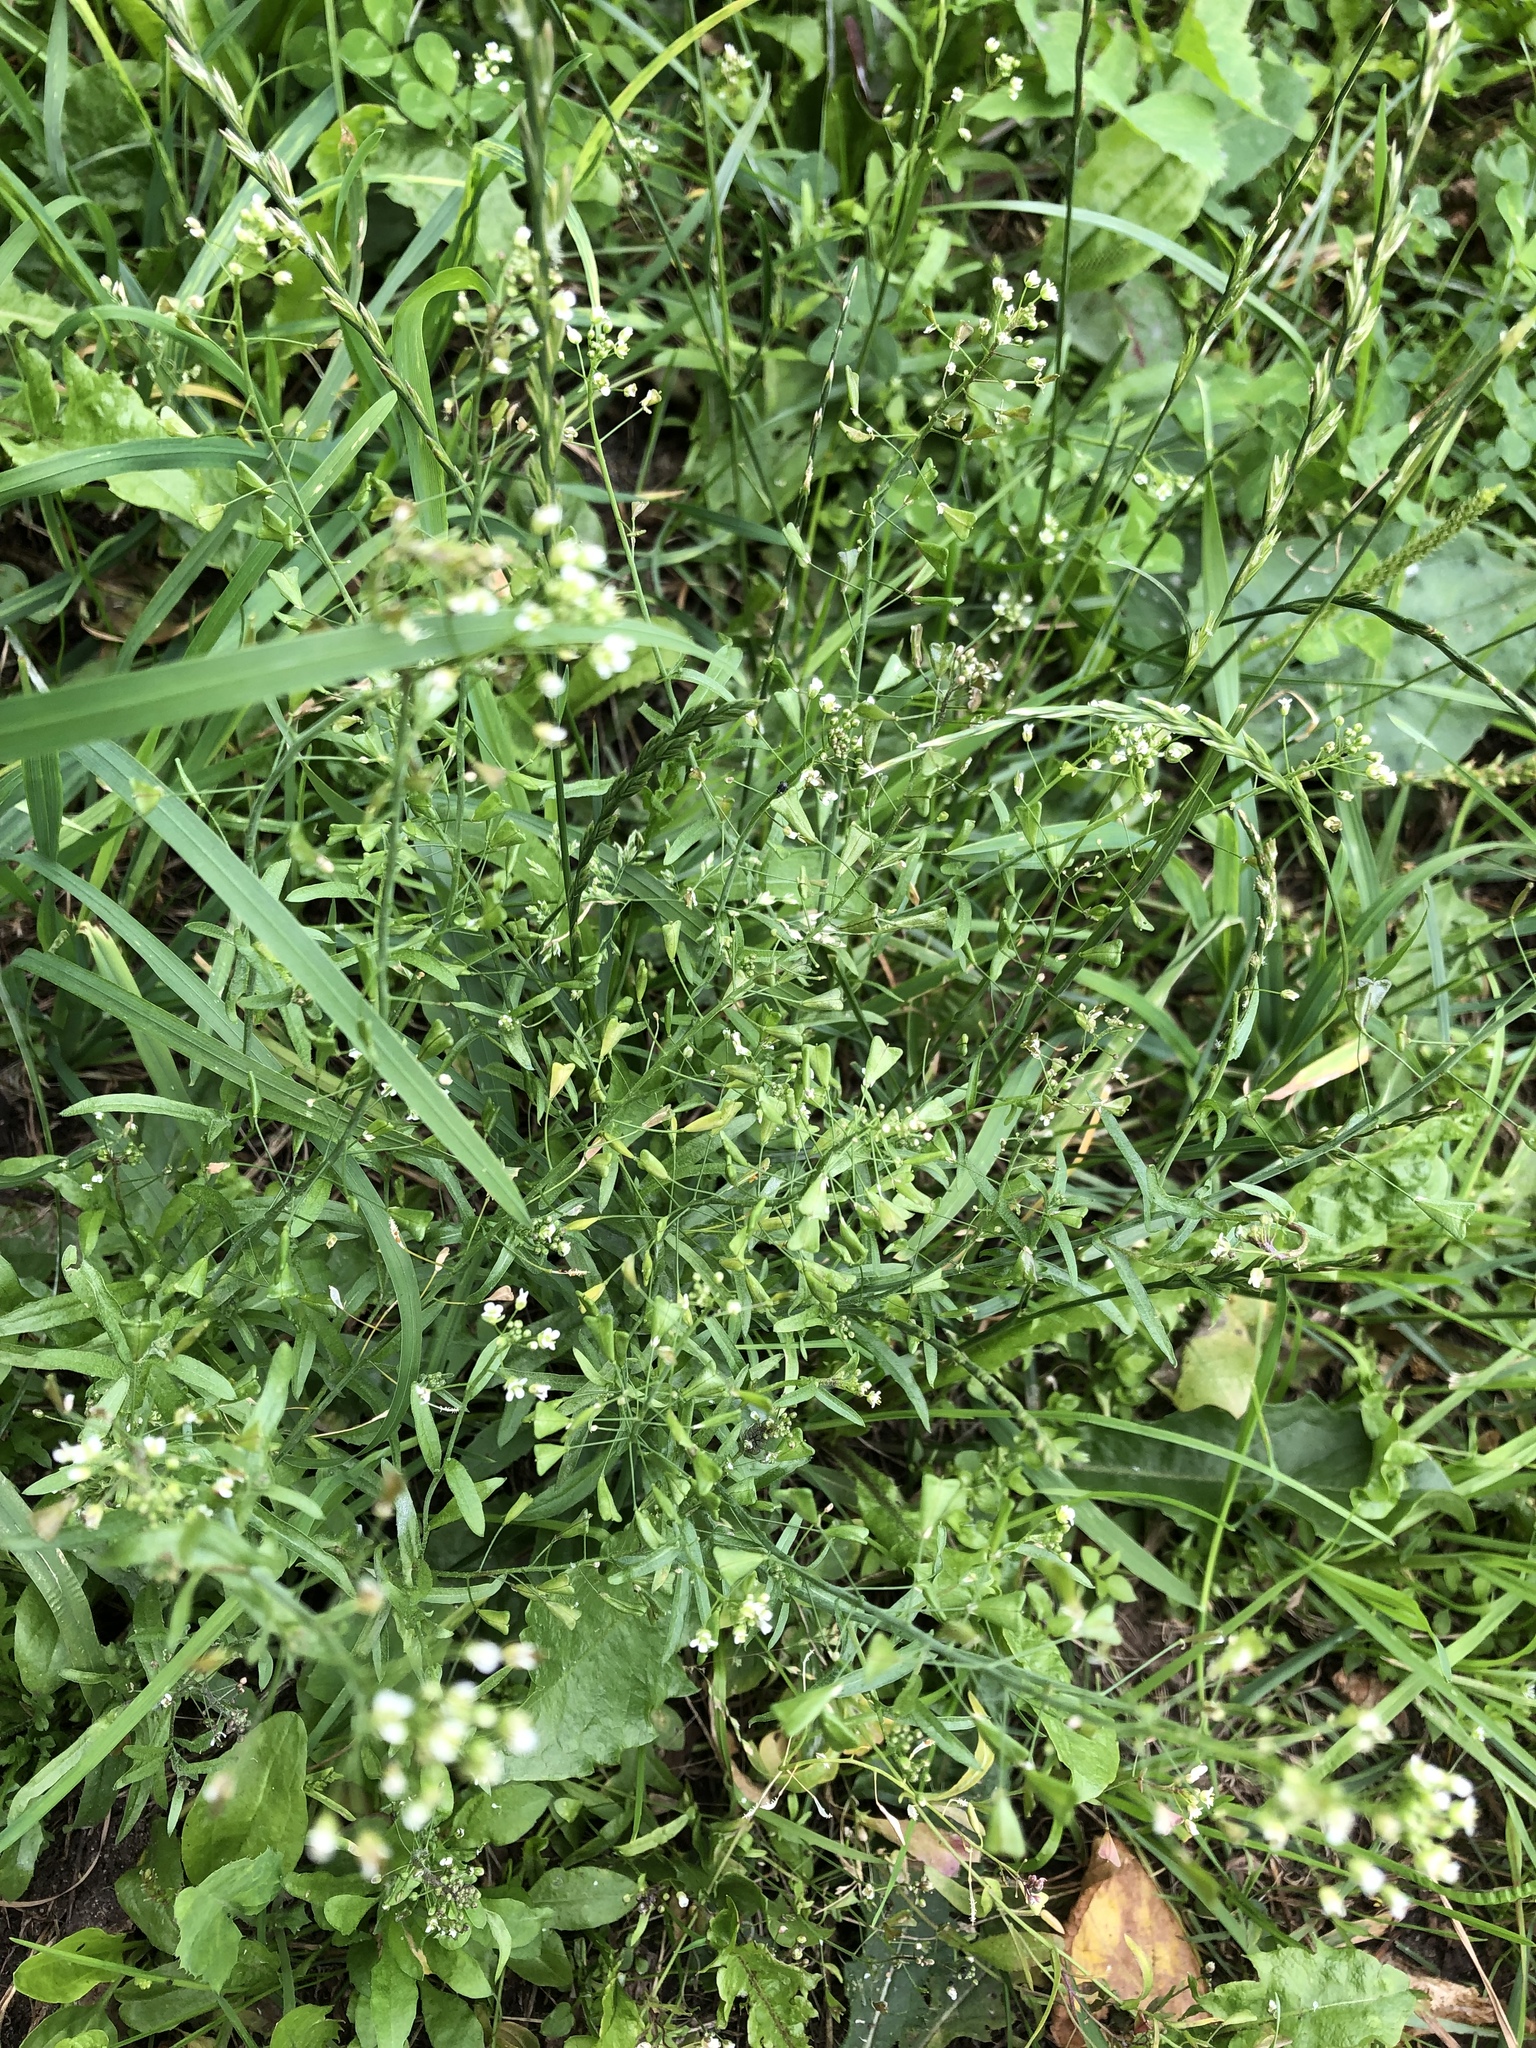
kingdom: Plantae
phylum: Tracheophyta
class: Magnoliopsida
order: Brassicales
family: Brassicaceae
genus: Capsella
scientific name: Capsella bursa-pastoris
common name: Shepherd's purse
